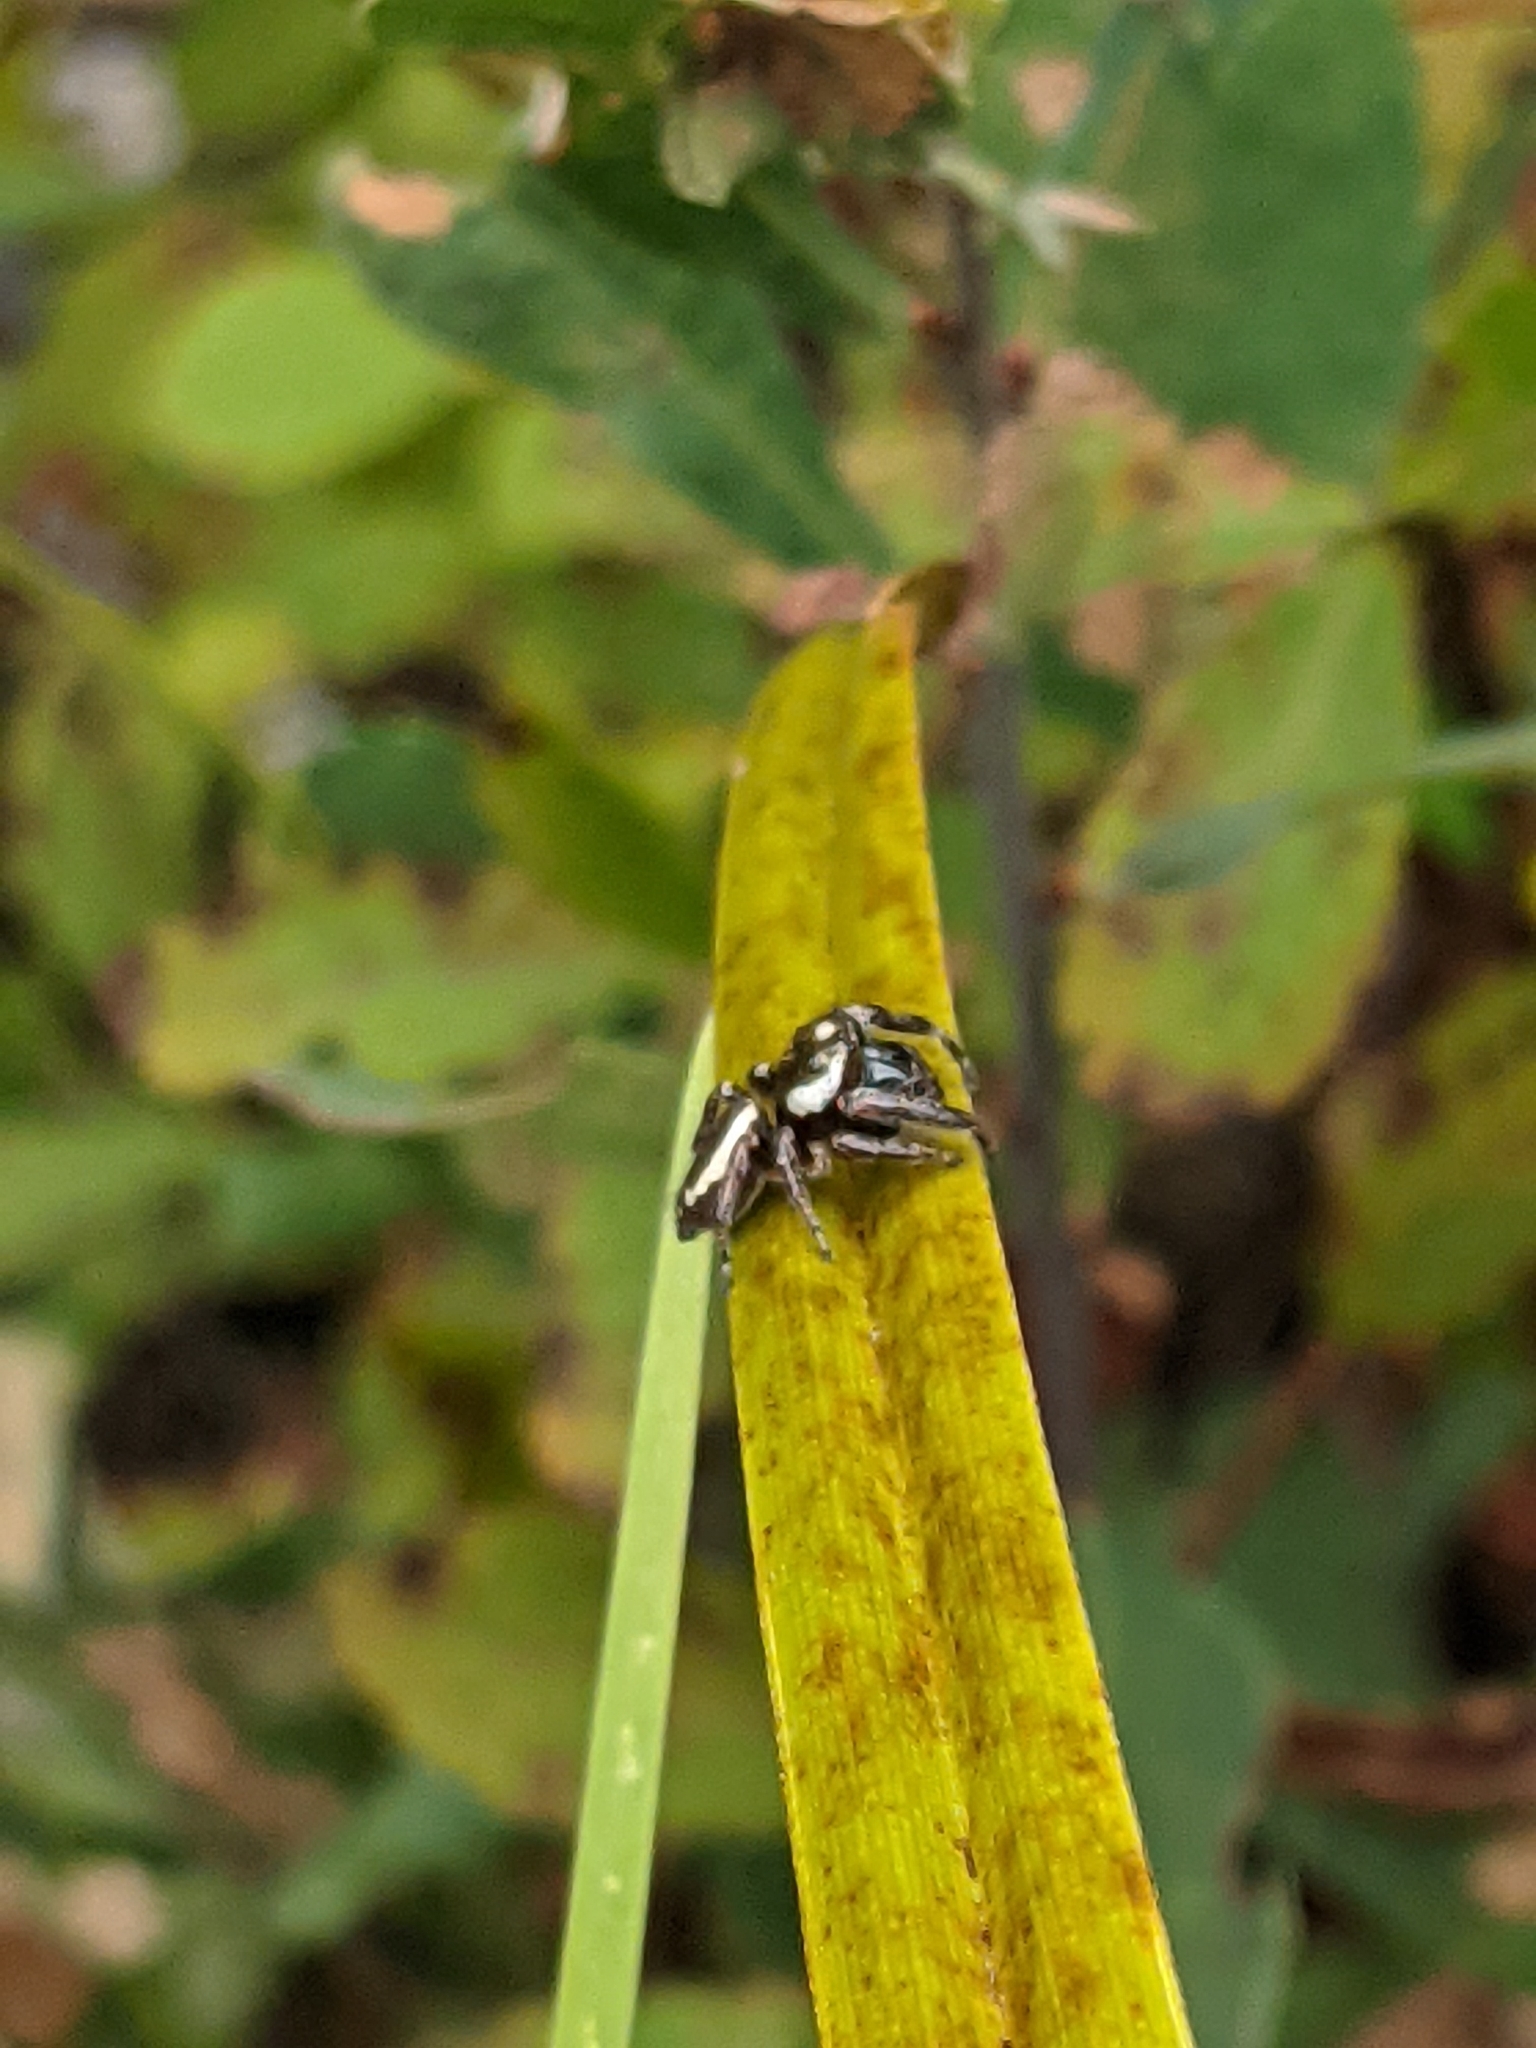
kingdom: Animalia
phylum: Arthropoda
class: Arachnida
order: Araneae
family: Salticidae
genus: Eris
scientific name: Eris militaris
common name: Bronze jumper
